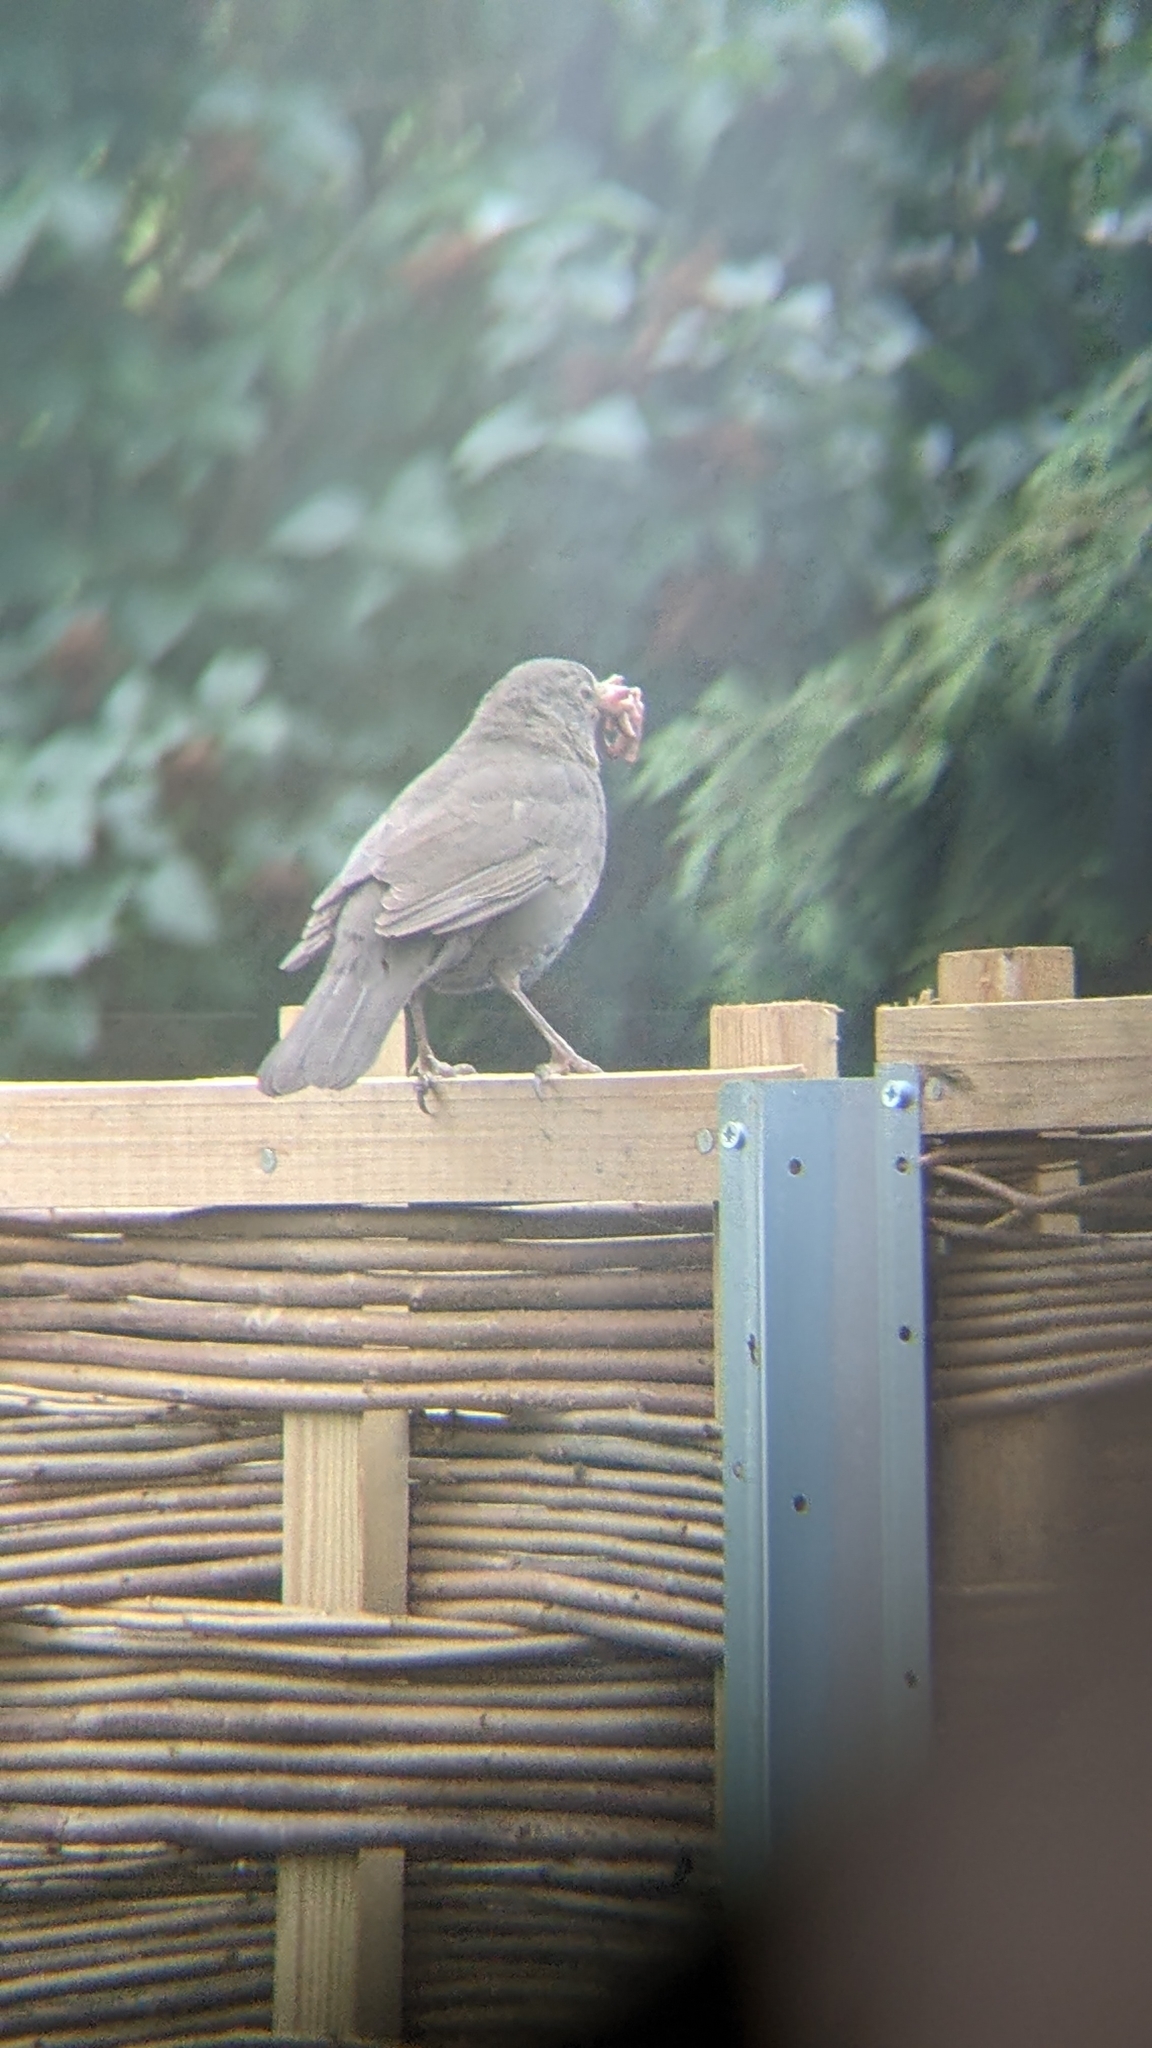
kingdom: Animalia
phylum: Chordata
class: Aves
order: Passeriformes
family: Turdidae
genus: Turdus
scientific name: Turdus merula
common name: Common blackbird
